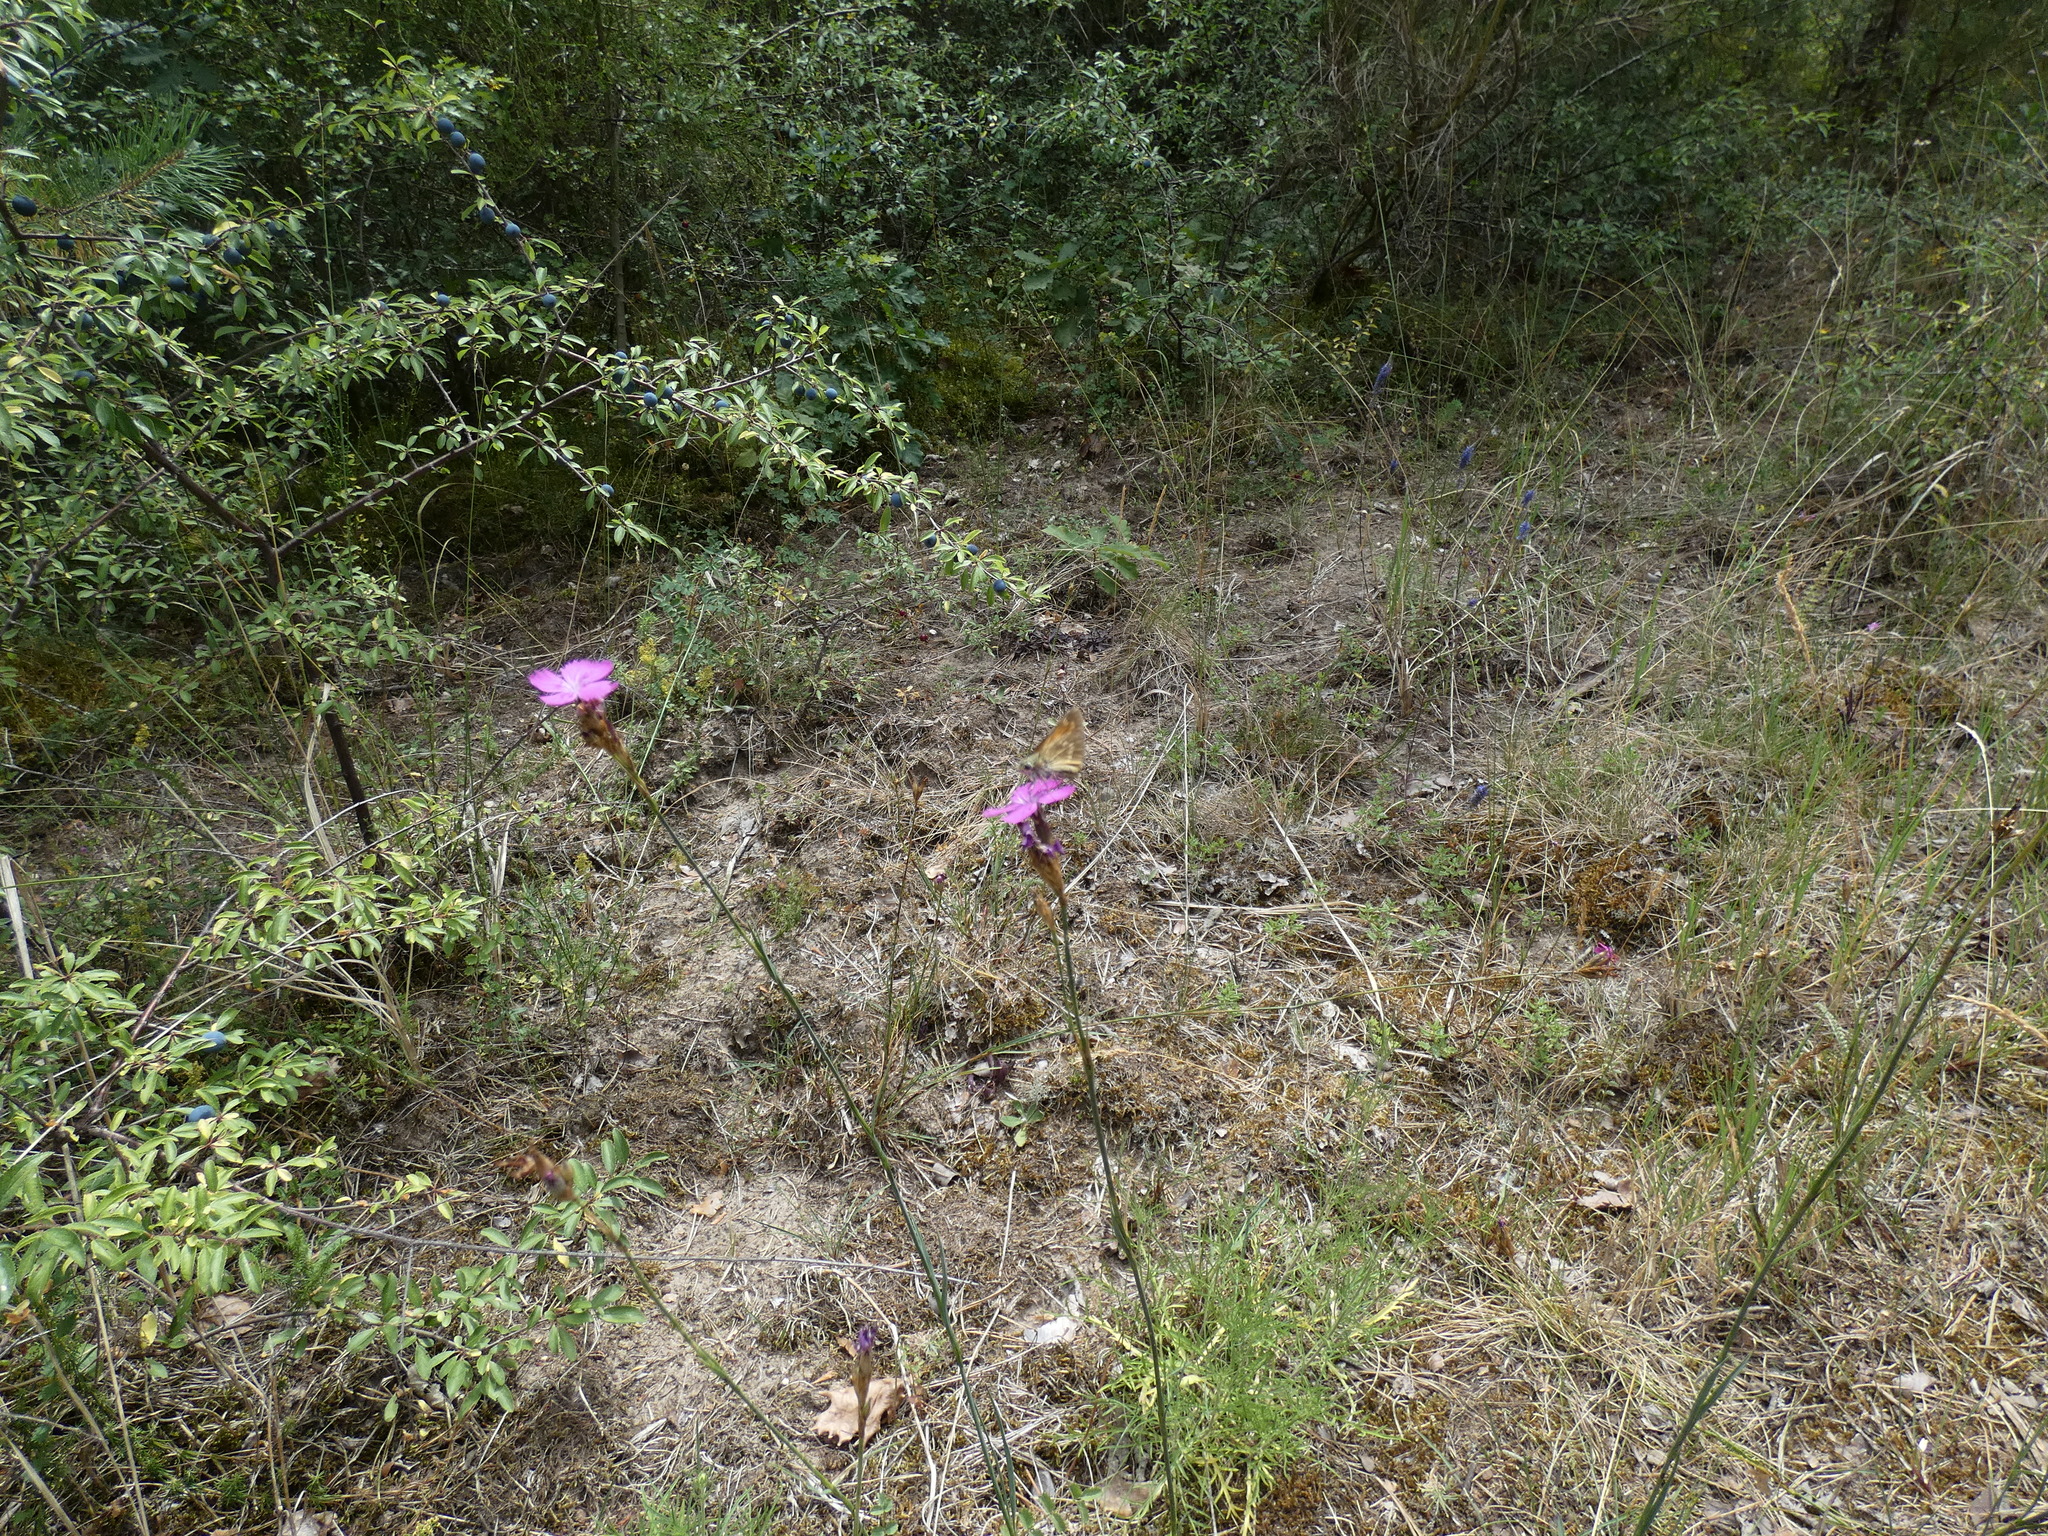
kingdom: Animalia
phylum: Arthropoda
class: Insecta
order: Lepidoptera
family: Hesperiidae
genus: Ochlodes
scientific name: Ochlodes venata
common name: Large skipper
